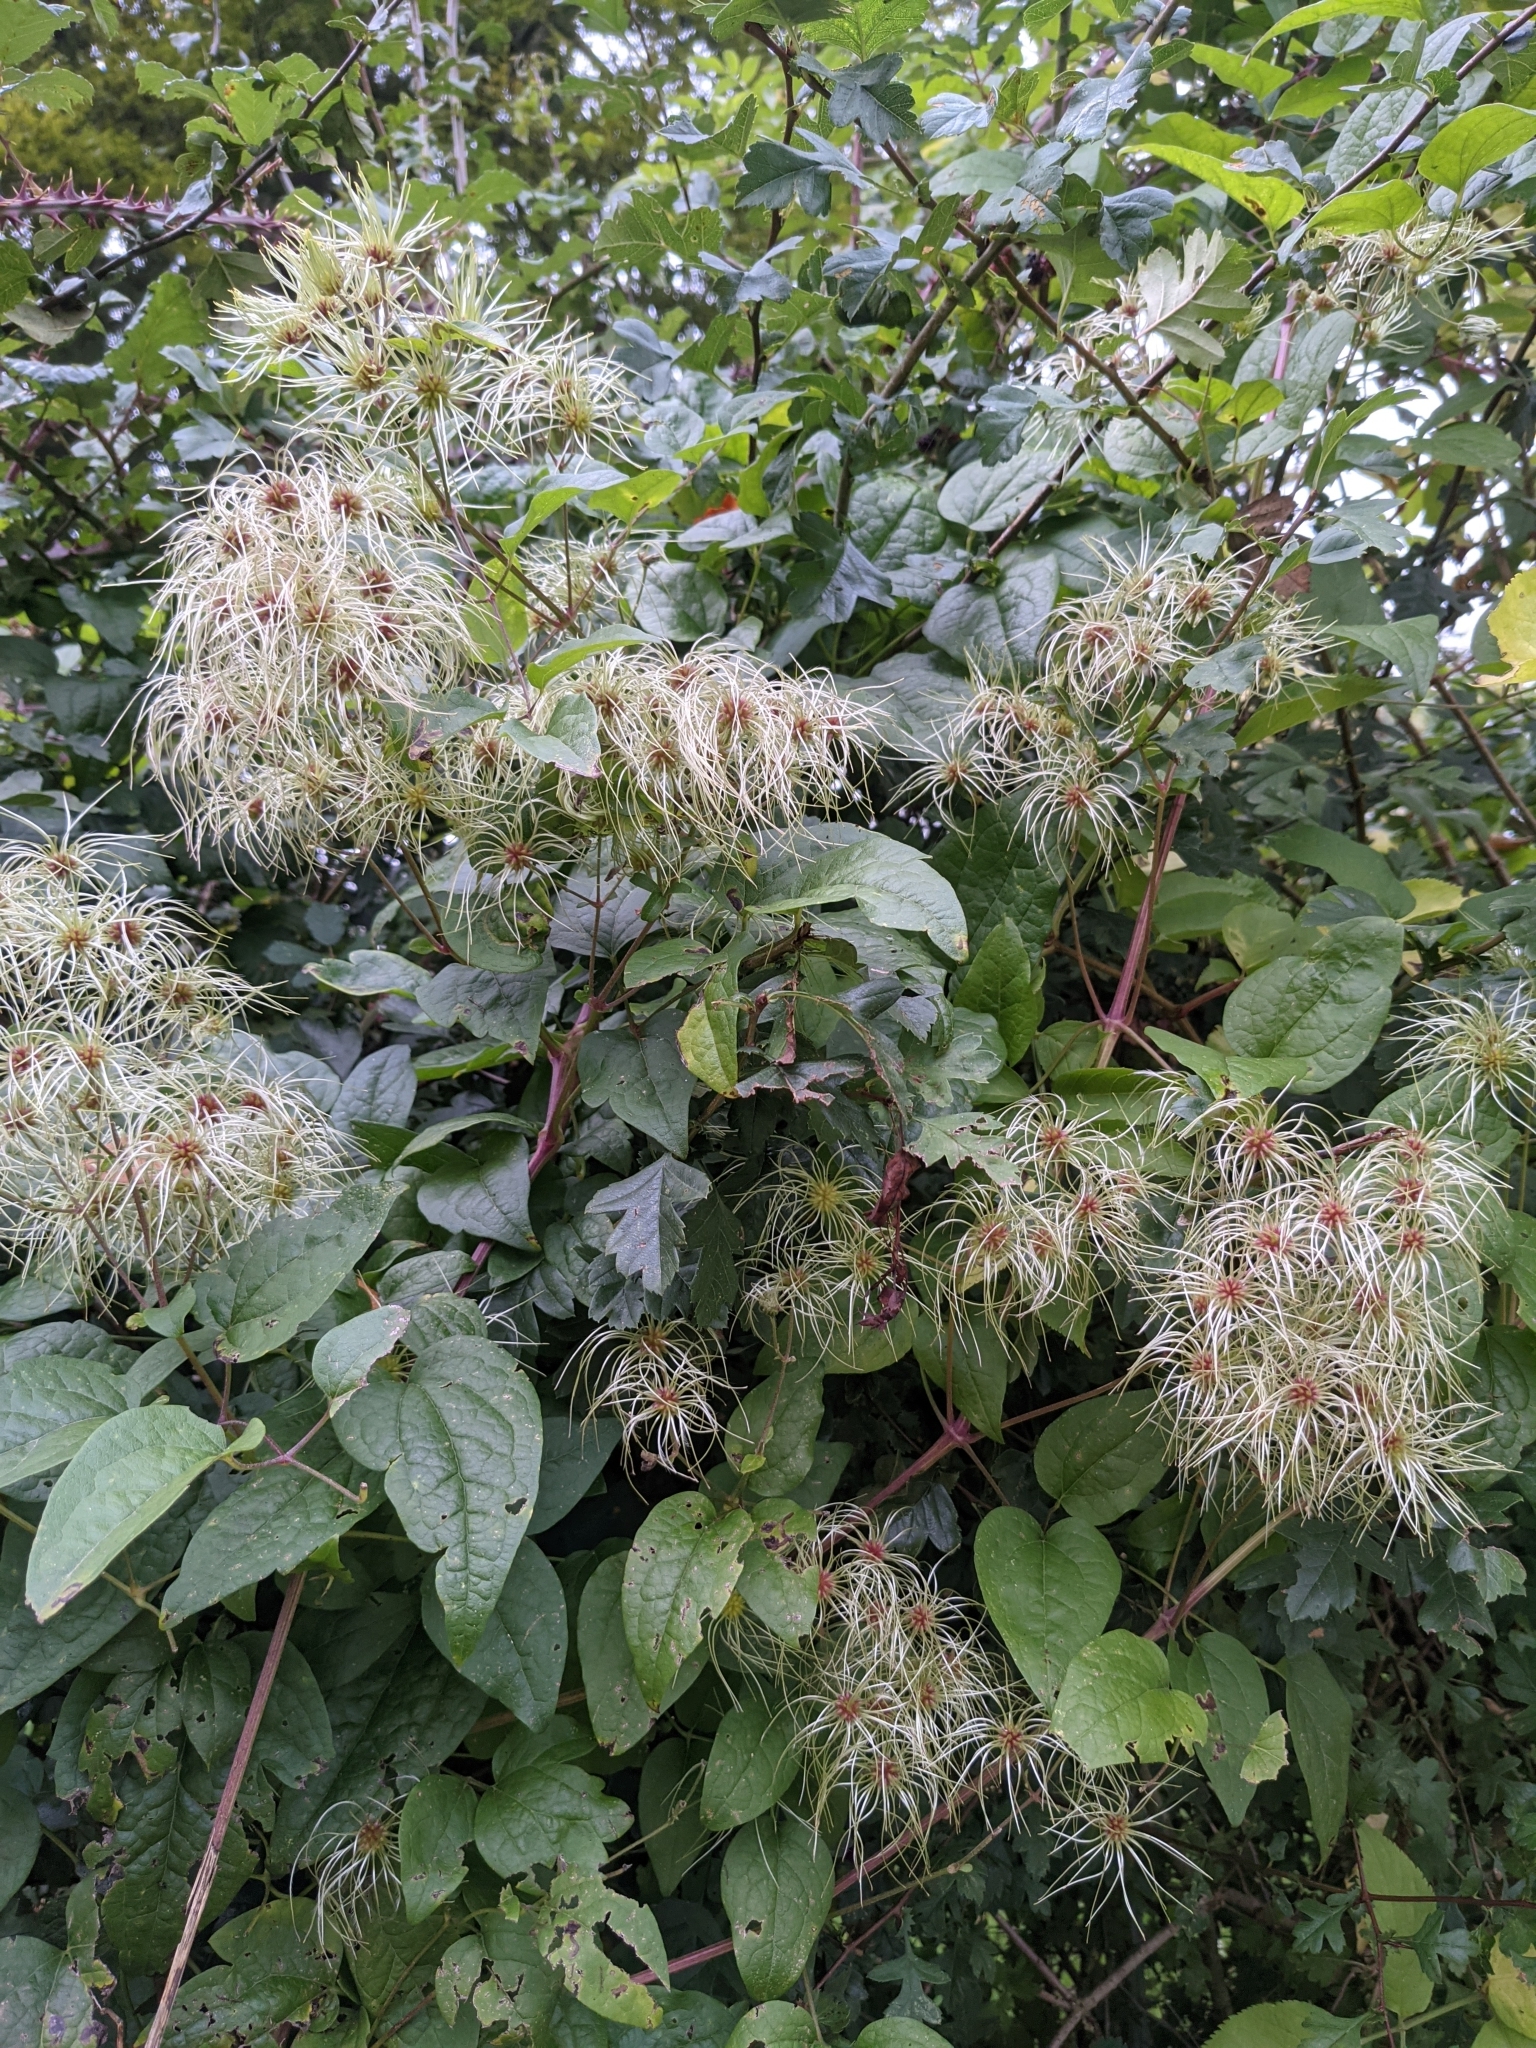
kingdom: Plantae
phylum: Tracheophyta
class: Magnoliopsida
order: Ranunculales
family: Ranunculaceae
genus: Clematis
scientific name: Clematis vitalba
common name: Evergreen clematis
